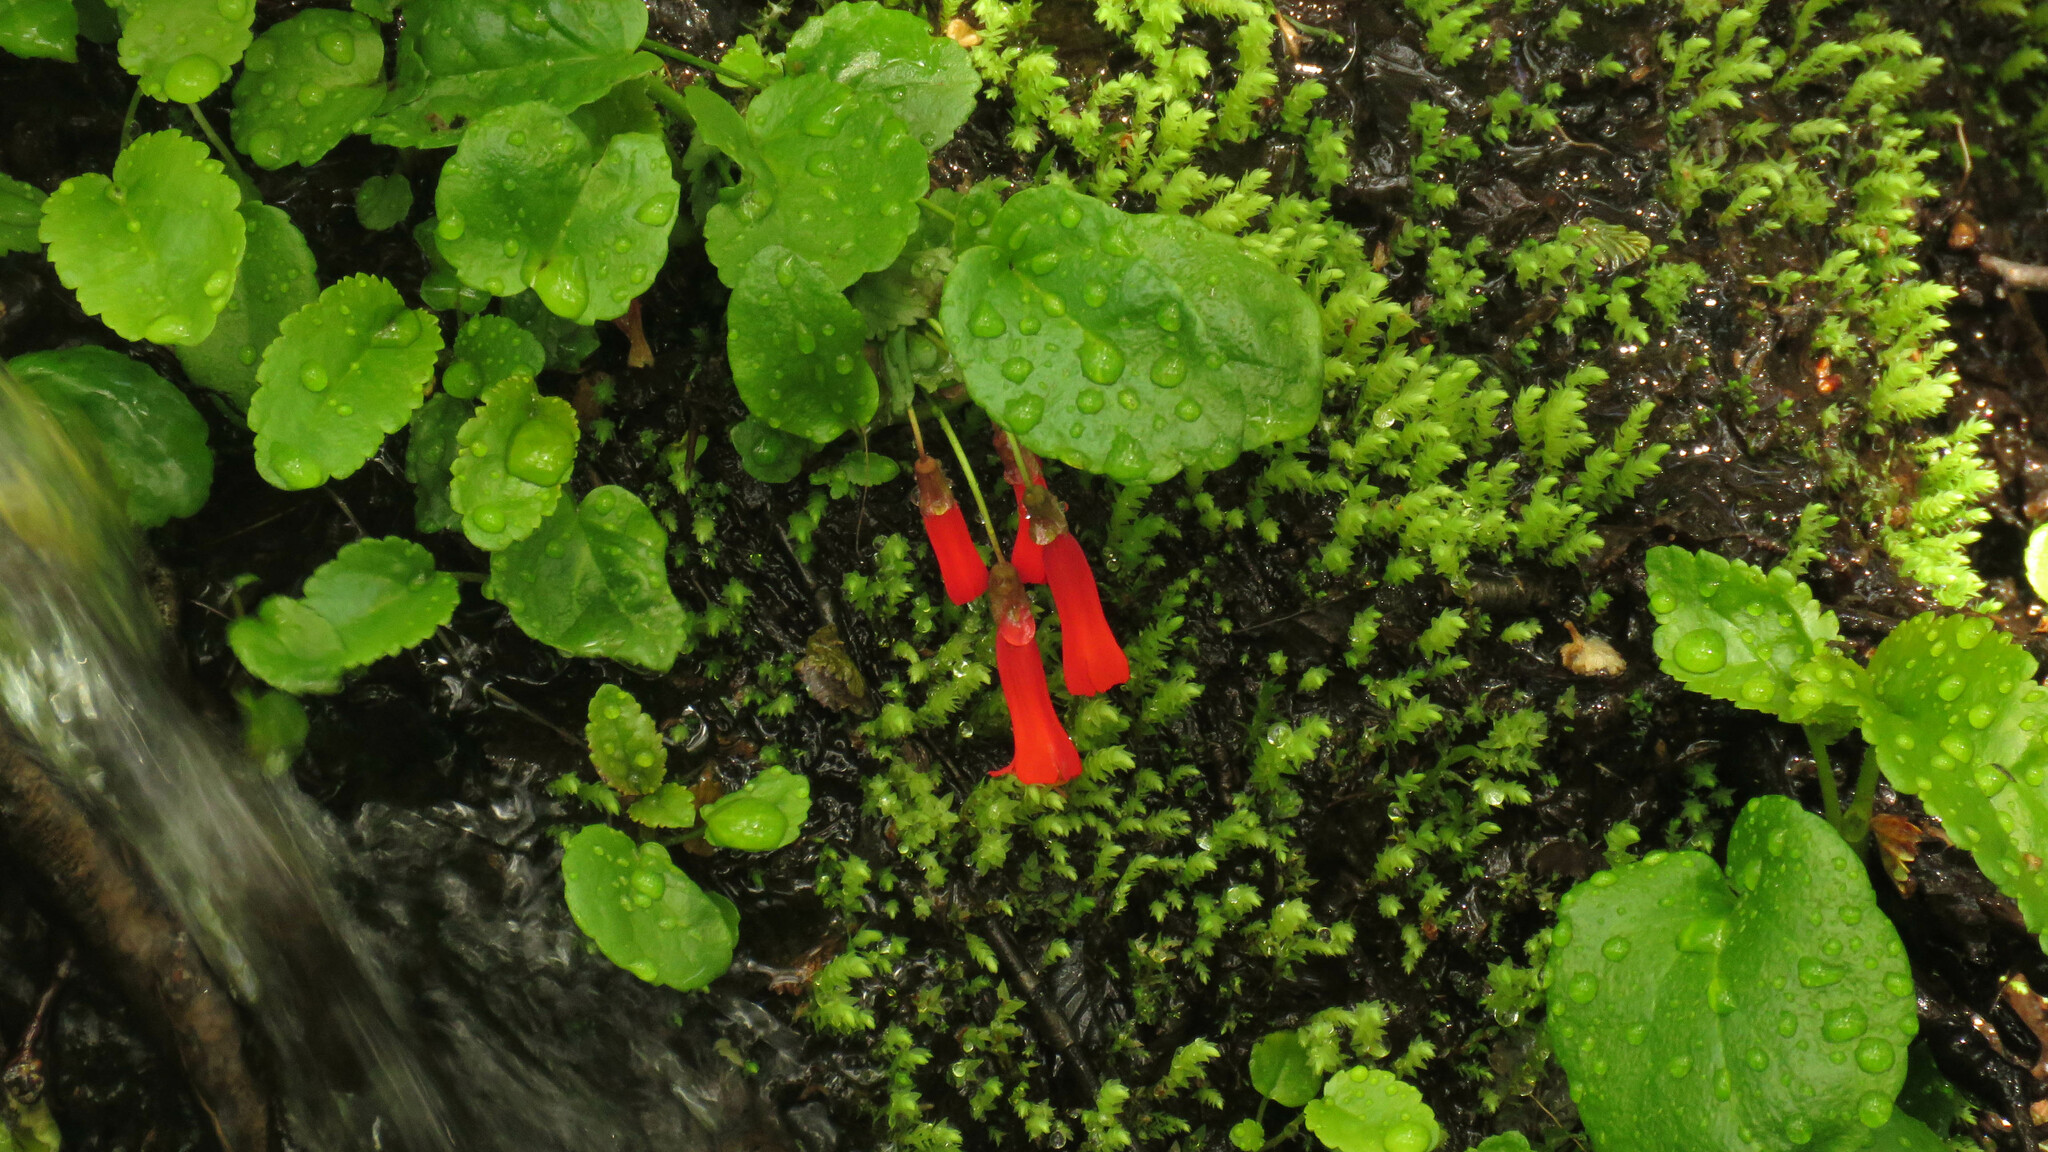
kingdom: Plantae
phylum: Tracheophyta
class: Magnoliopsida
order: Lamiales
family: Plantaginaceae
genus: Ourisia
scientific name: Ourisia ruellioides
